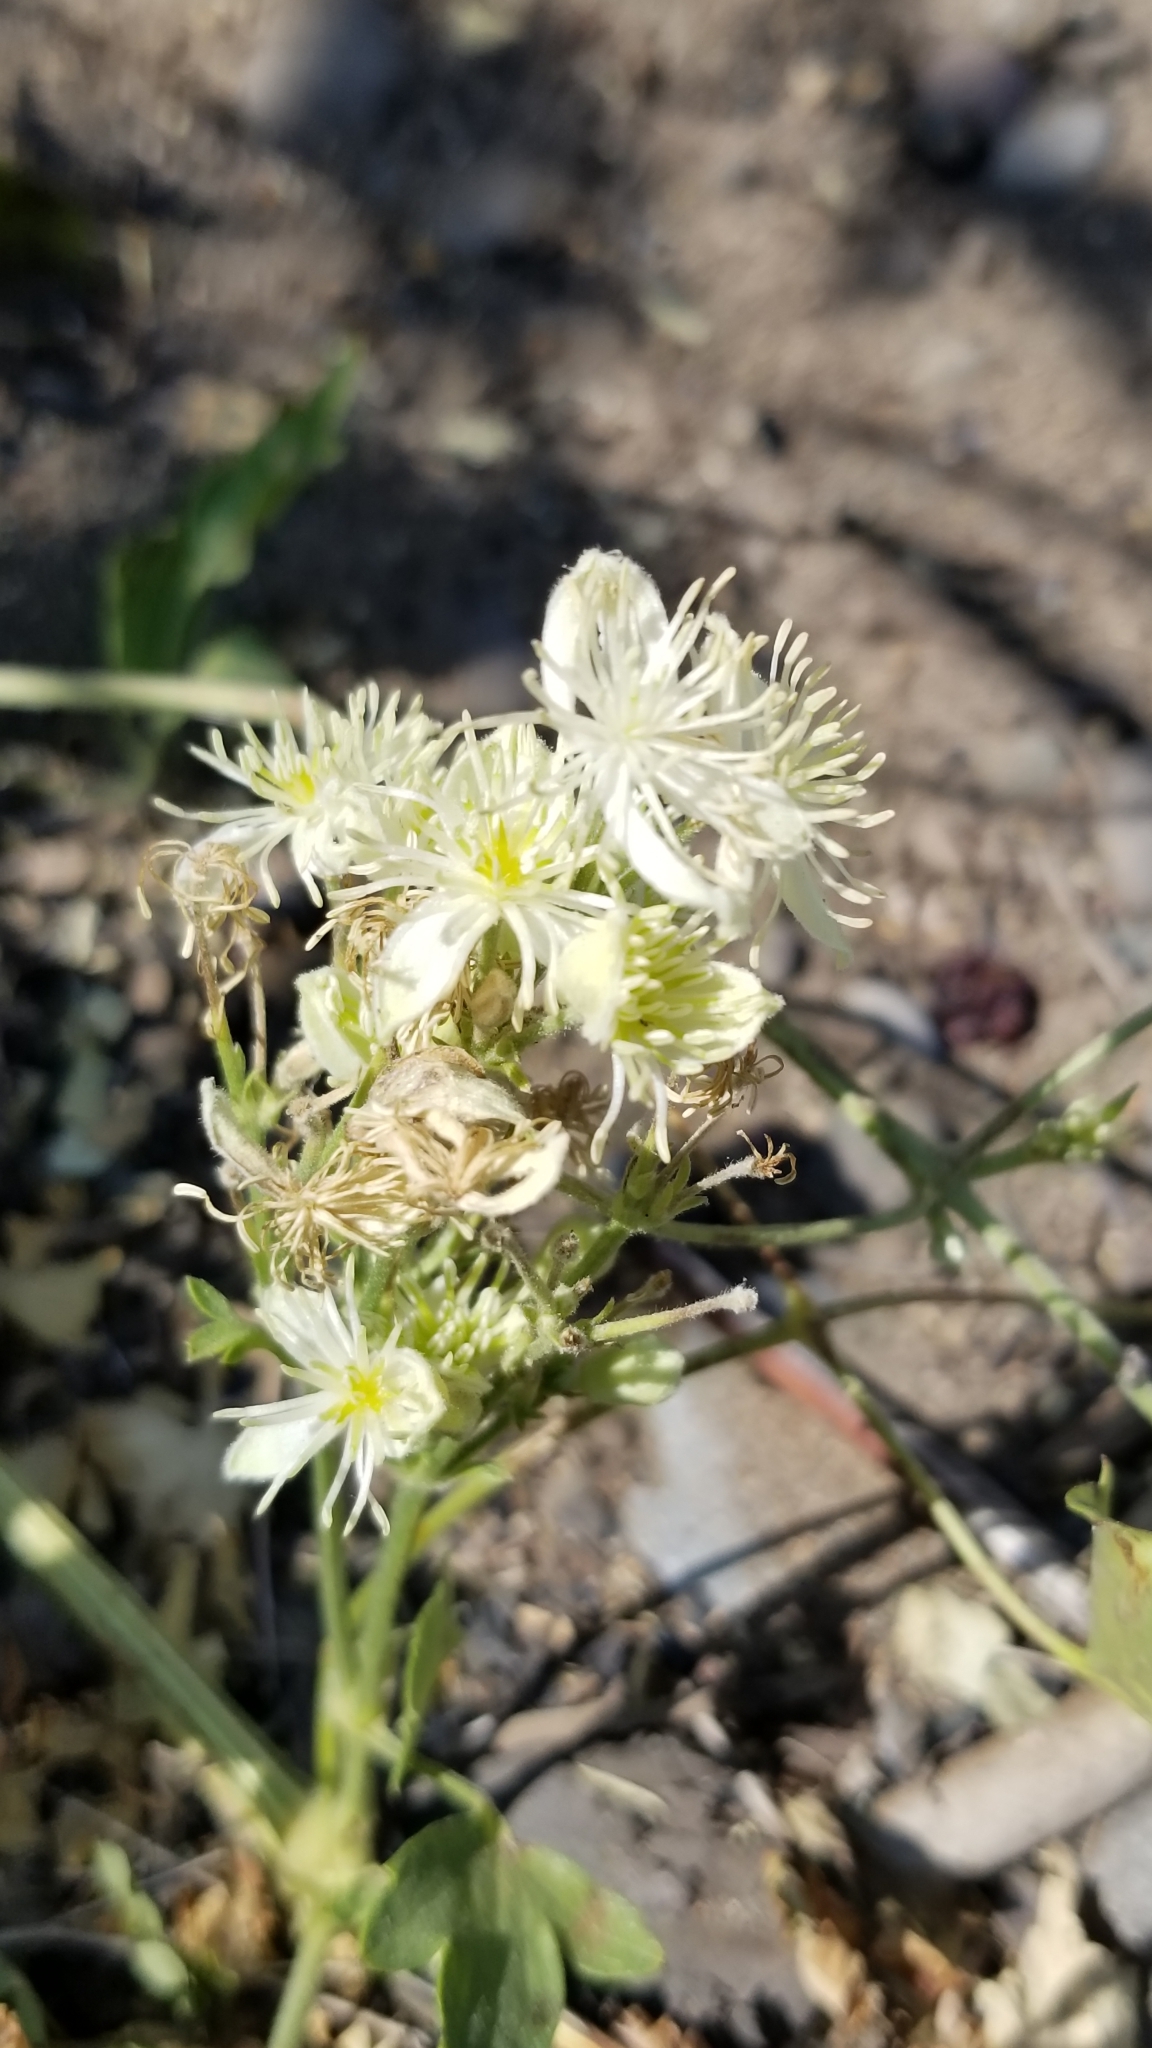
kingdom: Plantae
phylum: Tracheophyta
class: Magnoliopsida
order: Ranunculales
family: Ranunculaceae
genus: Clematis
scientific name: Clematis ligusticifolia
